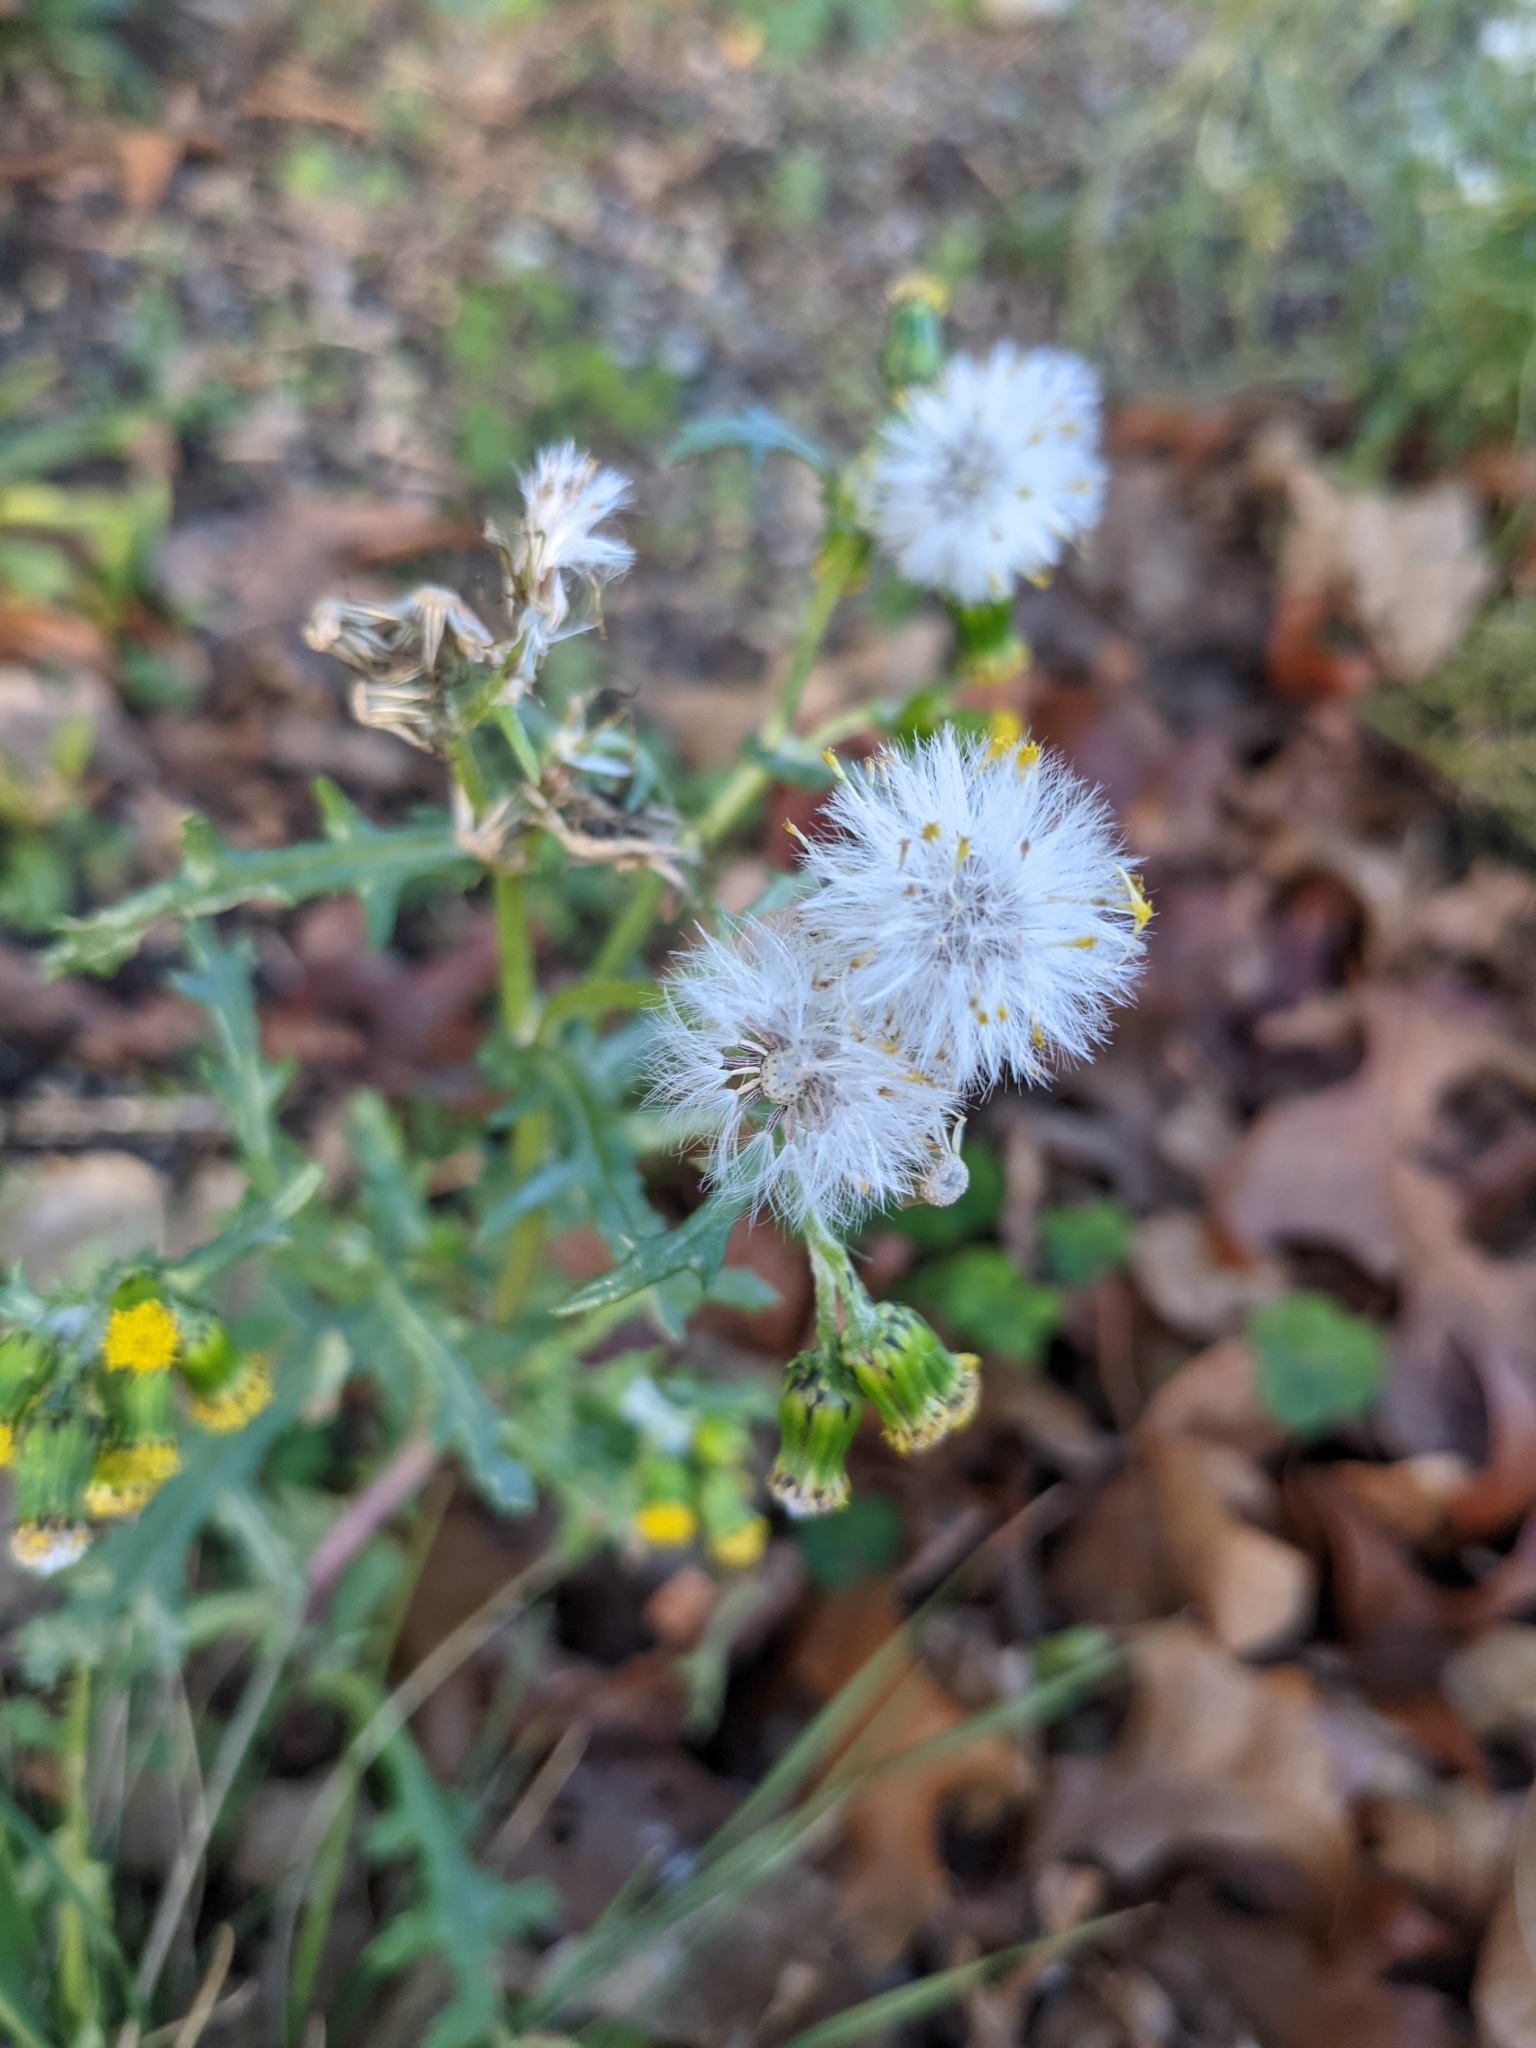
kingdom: Plantae
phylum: Tracheophyta
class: Magnoliopsida
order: Asterales
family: Asteraceae
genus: Senecio
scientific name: Senecio vulgaris
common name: Old-man-in-the-spring
